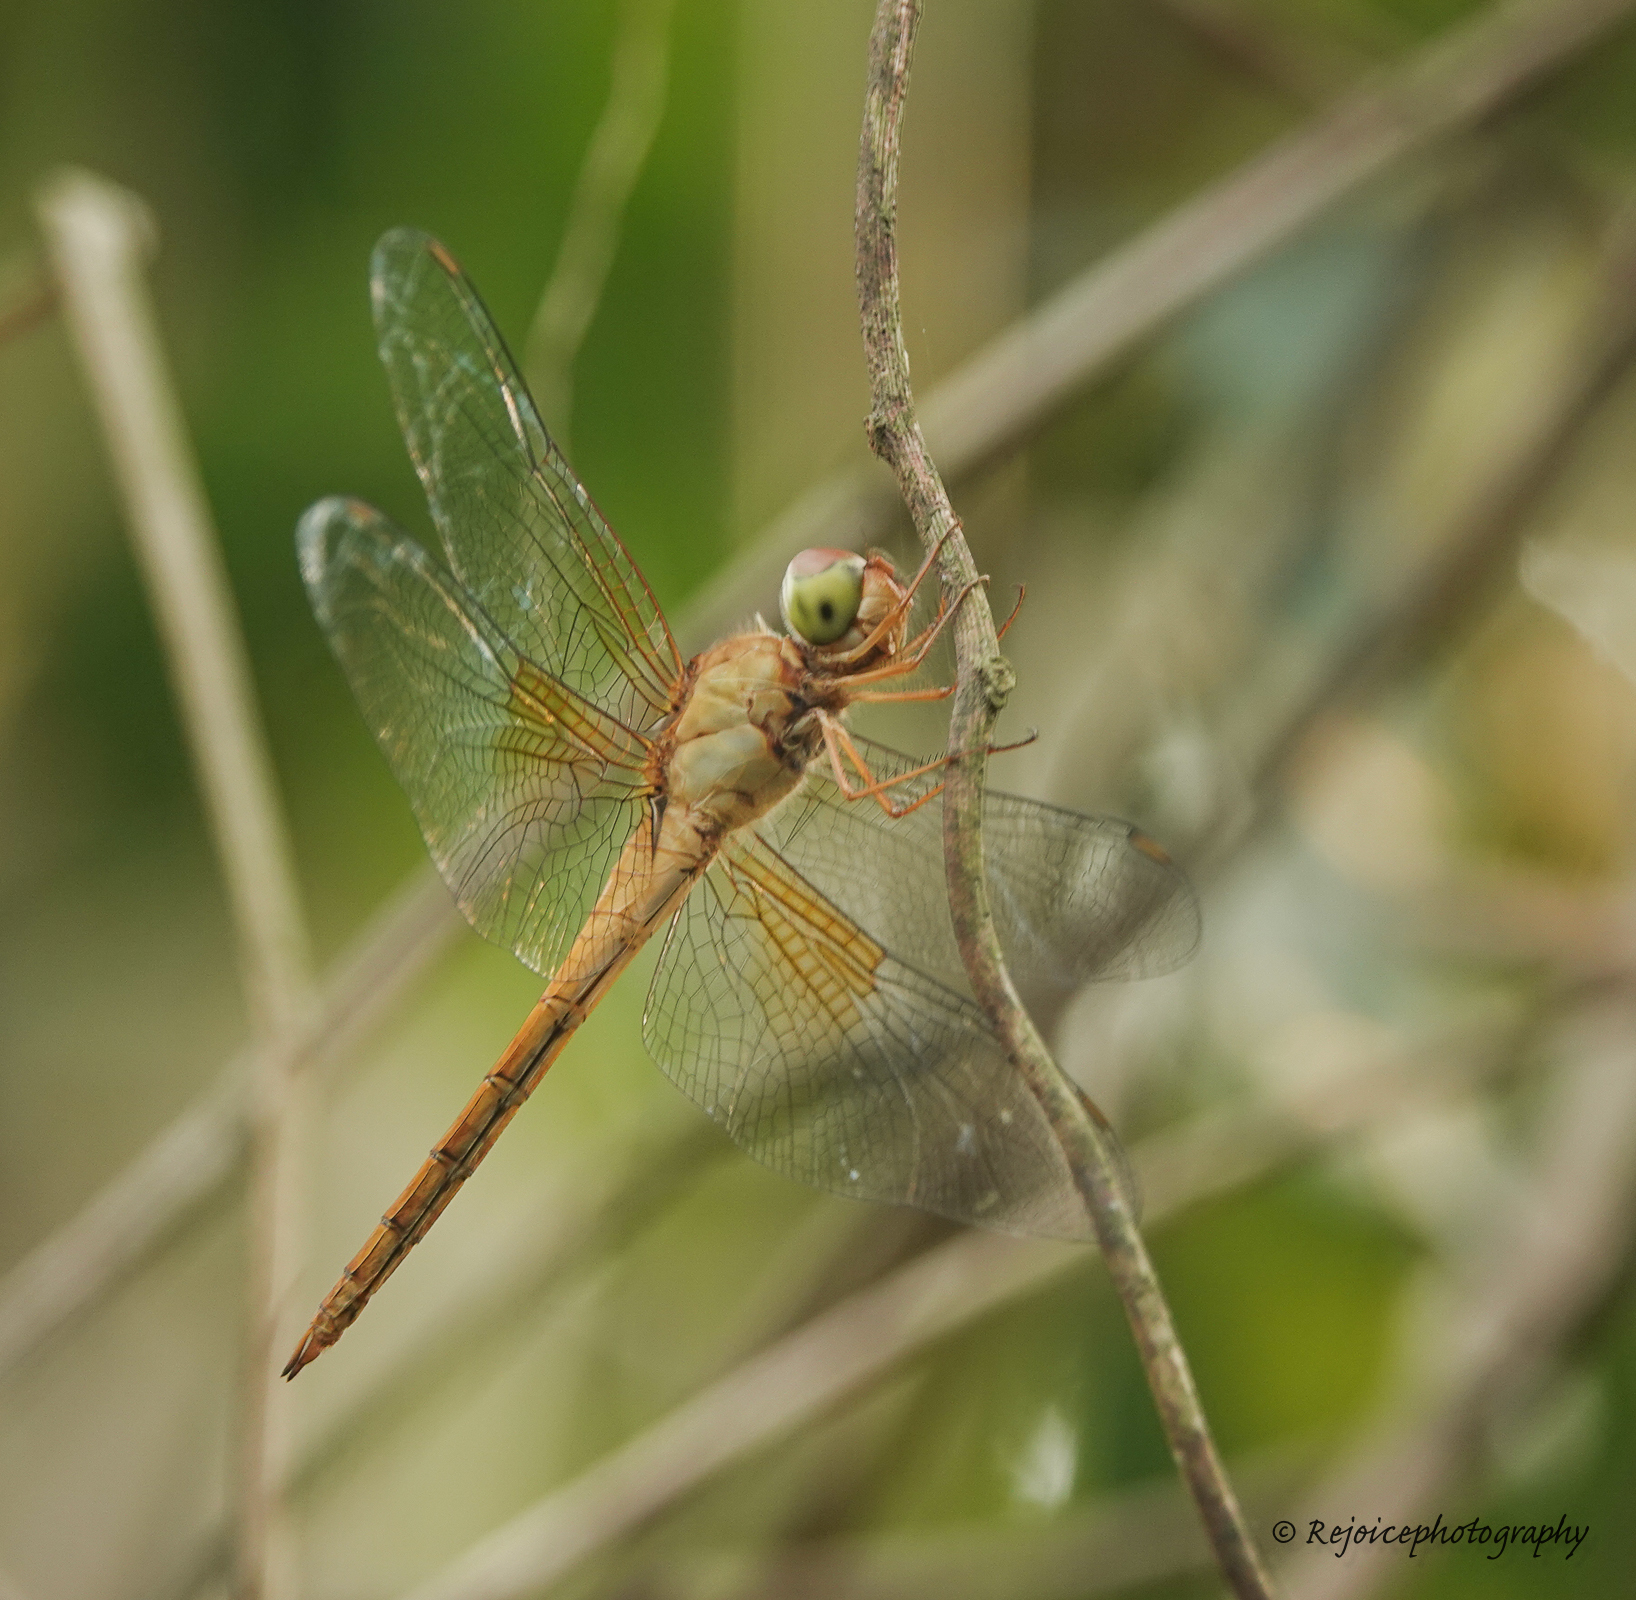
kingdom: Animalia
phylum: Arthropoda
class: Insecta
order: Odonata
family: Libellulidae
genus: Tholymis
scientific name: Tholymis tillarga
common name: Coral-tailed cloud wing
